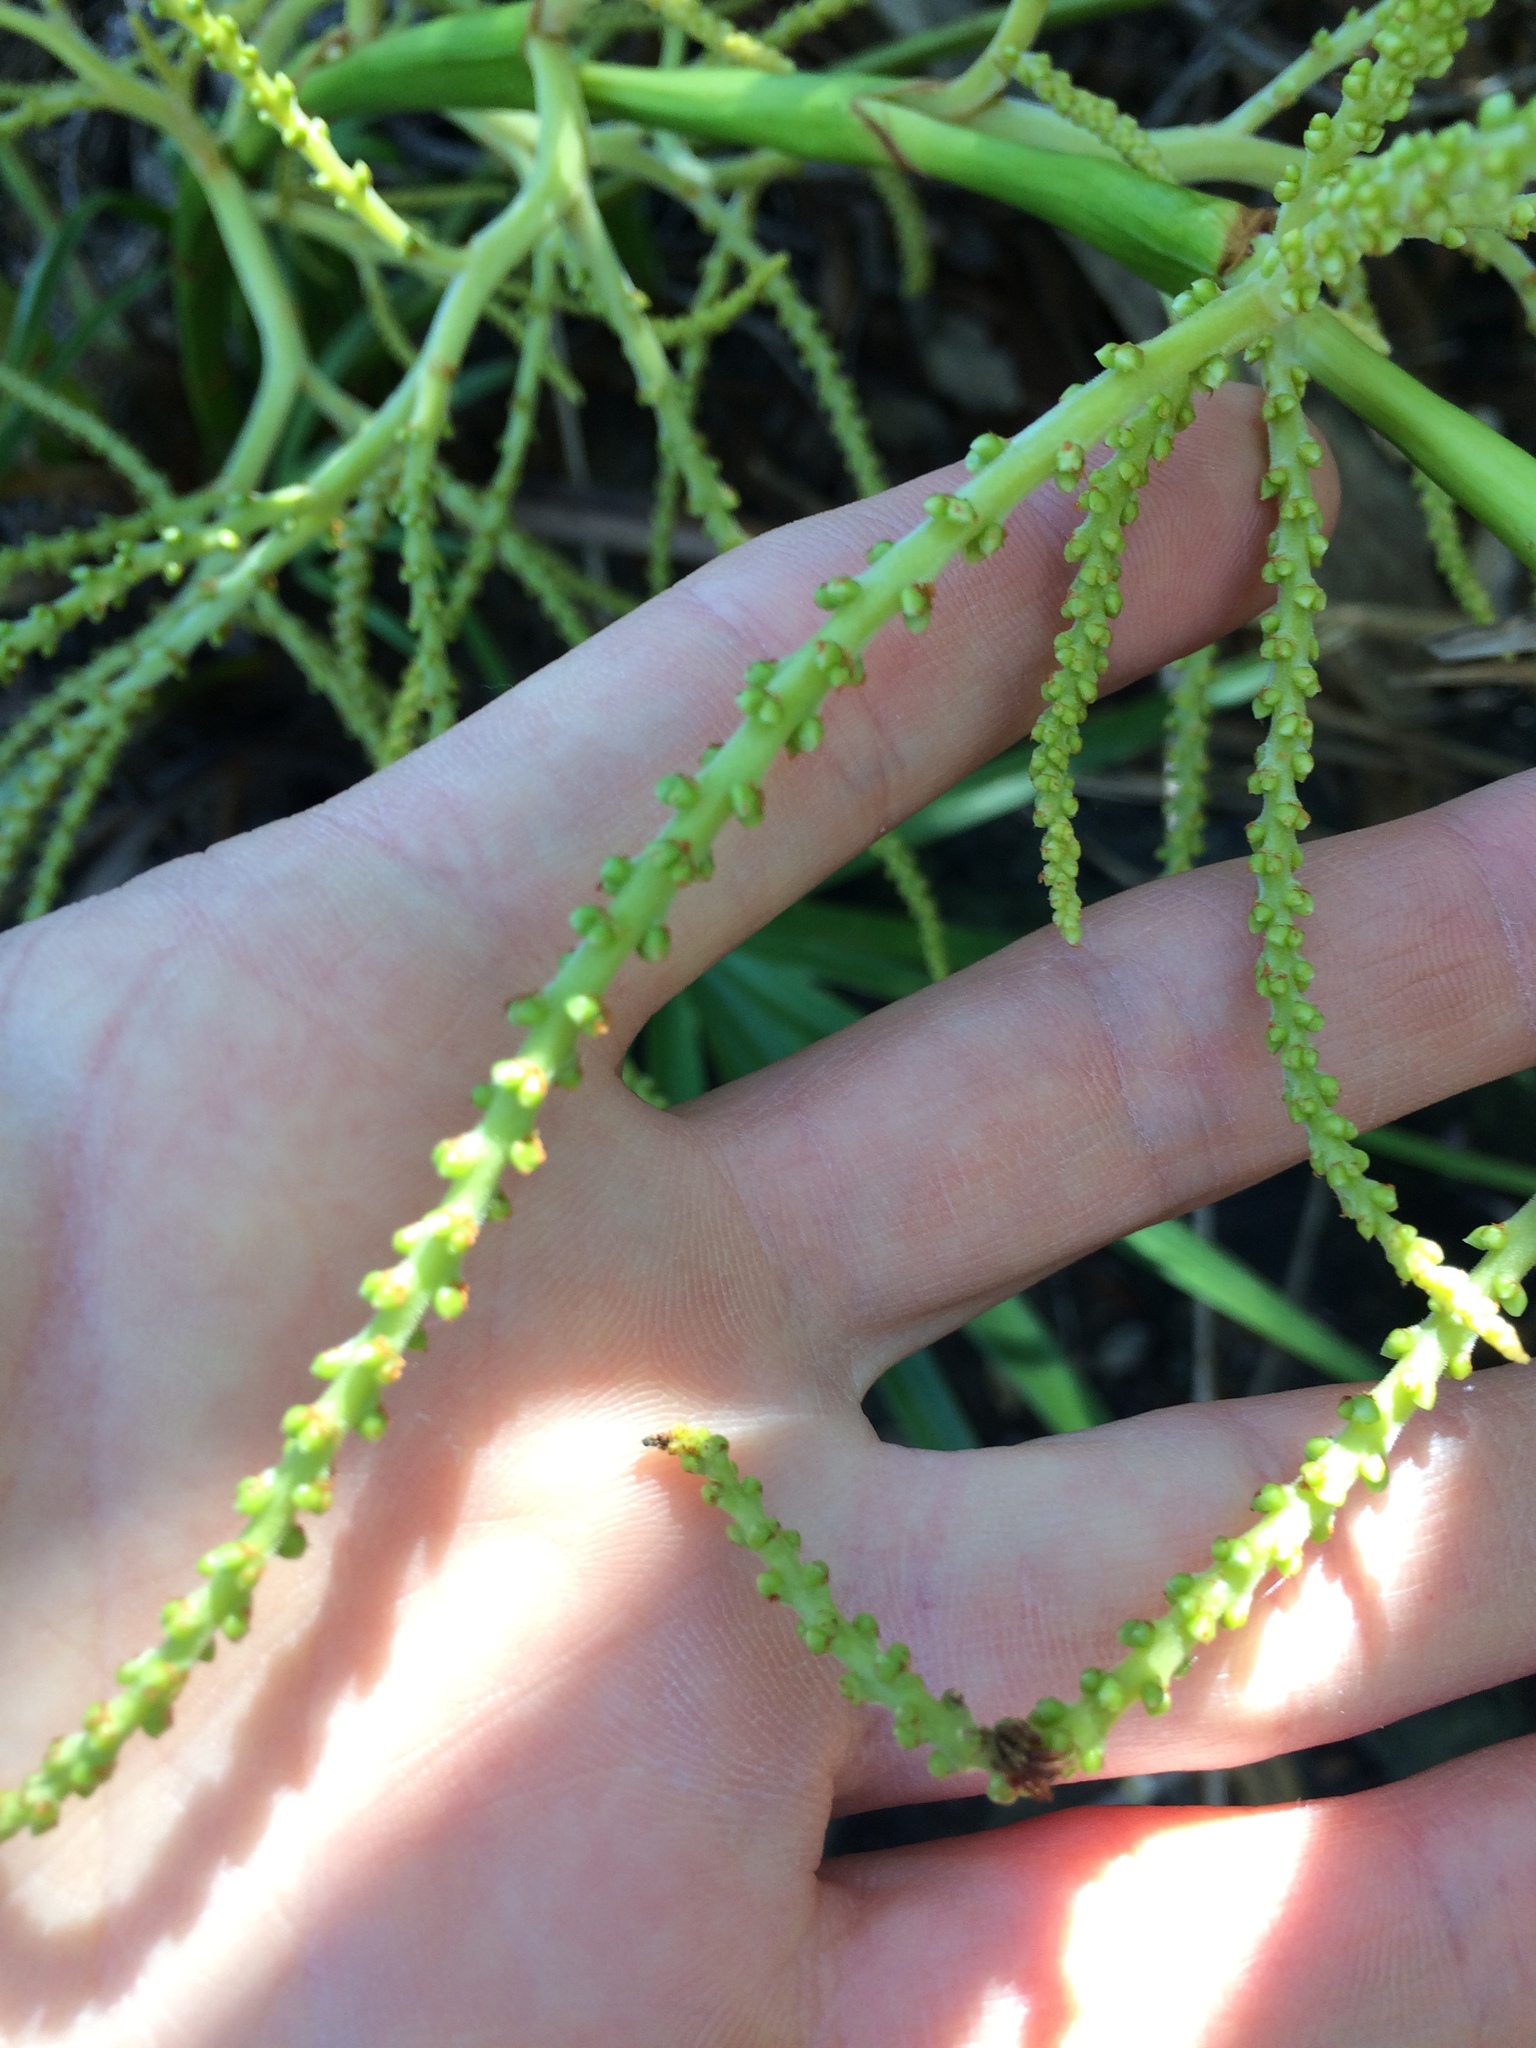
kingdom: Plantae
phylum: Tracheophyta
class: Liliopsida
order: Arecales
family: Arecaceae
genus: Serenoa
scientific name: Serenoa repens
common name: Saw-palmetto
